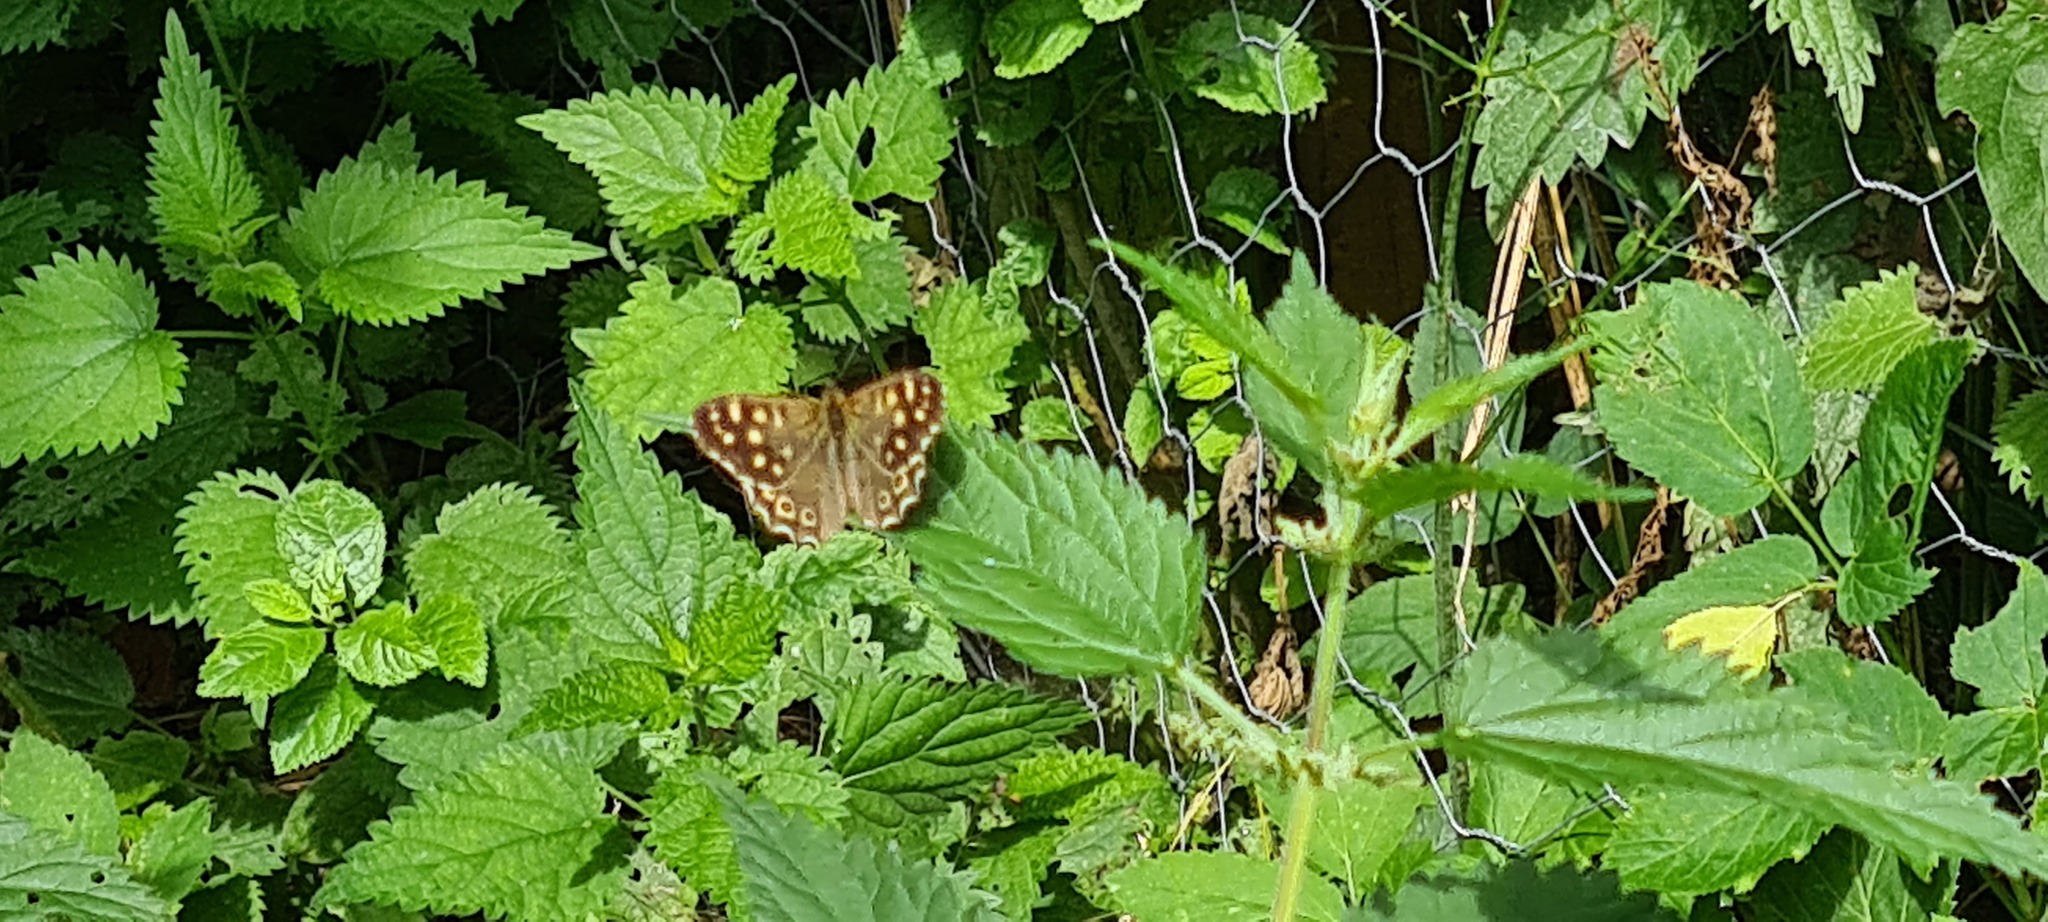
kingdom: Animalia
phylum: Arthropoda
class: Insecta
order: Lepidoptera
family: Nymphalidae
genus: Pararge
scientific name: Pararge aegeria
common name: Speckled wood
